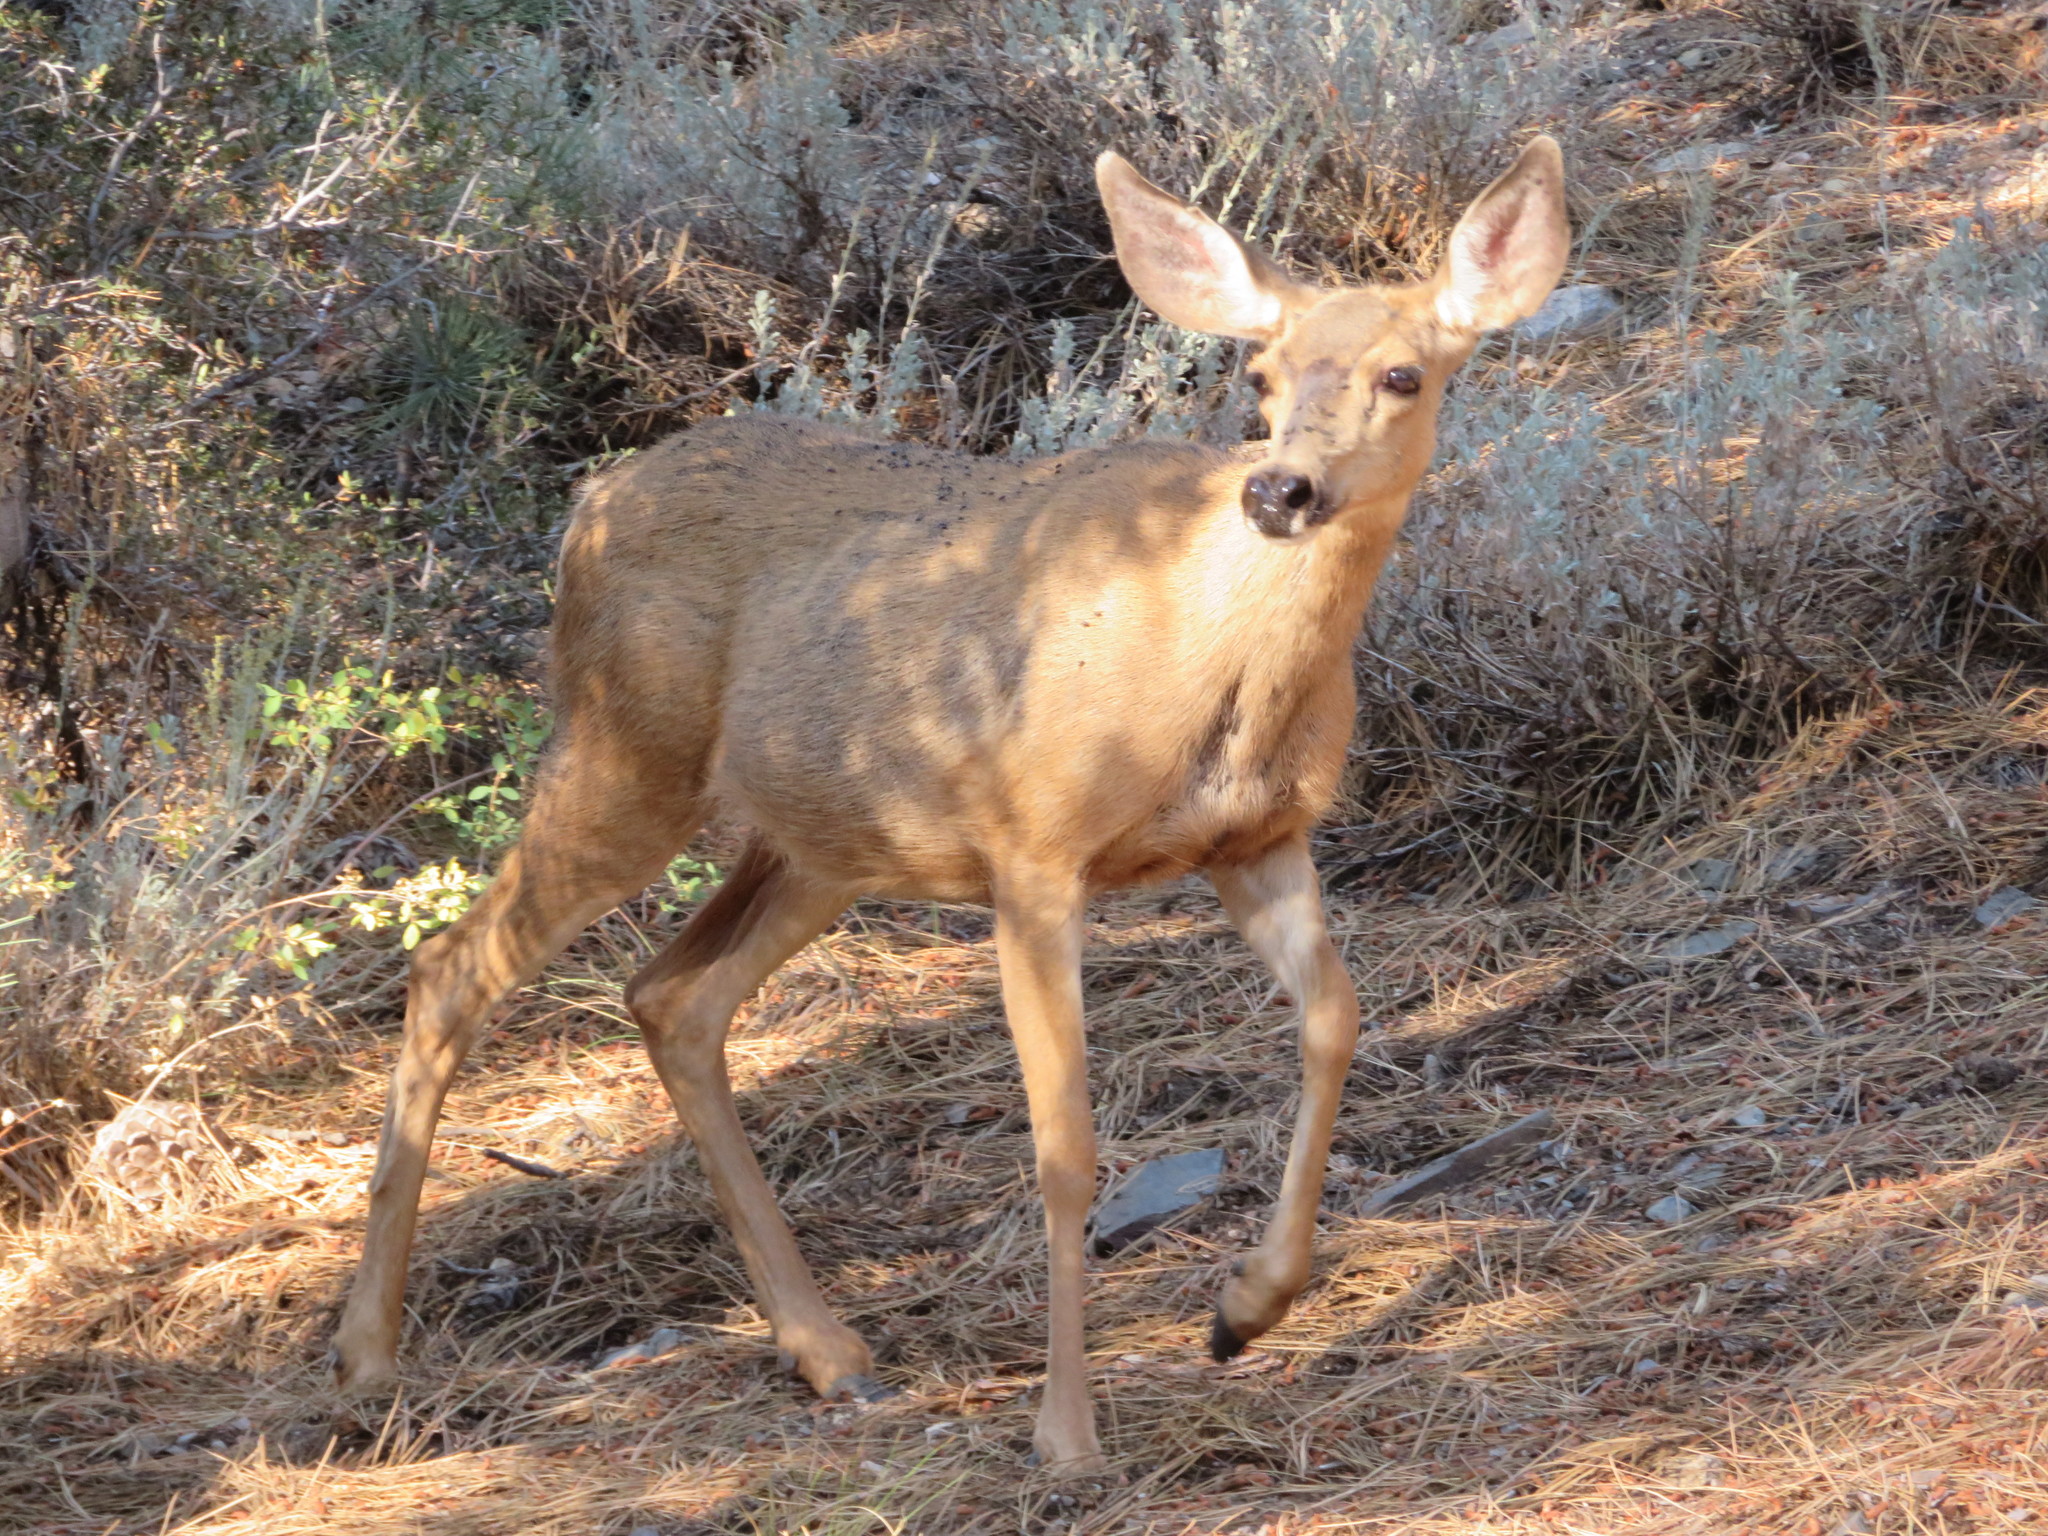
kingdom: Animalia
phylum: Chordata
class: Mammalia
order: Artiodactyla
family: Cervidae
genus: Odocoileus
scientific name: Odocoileus hemionus
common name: Mule deer
